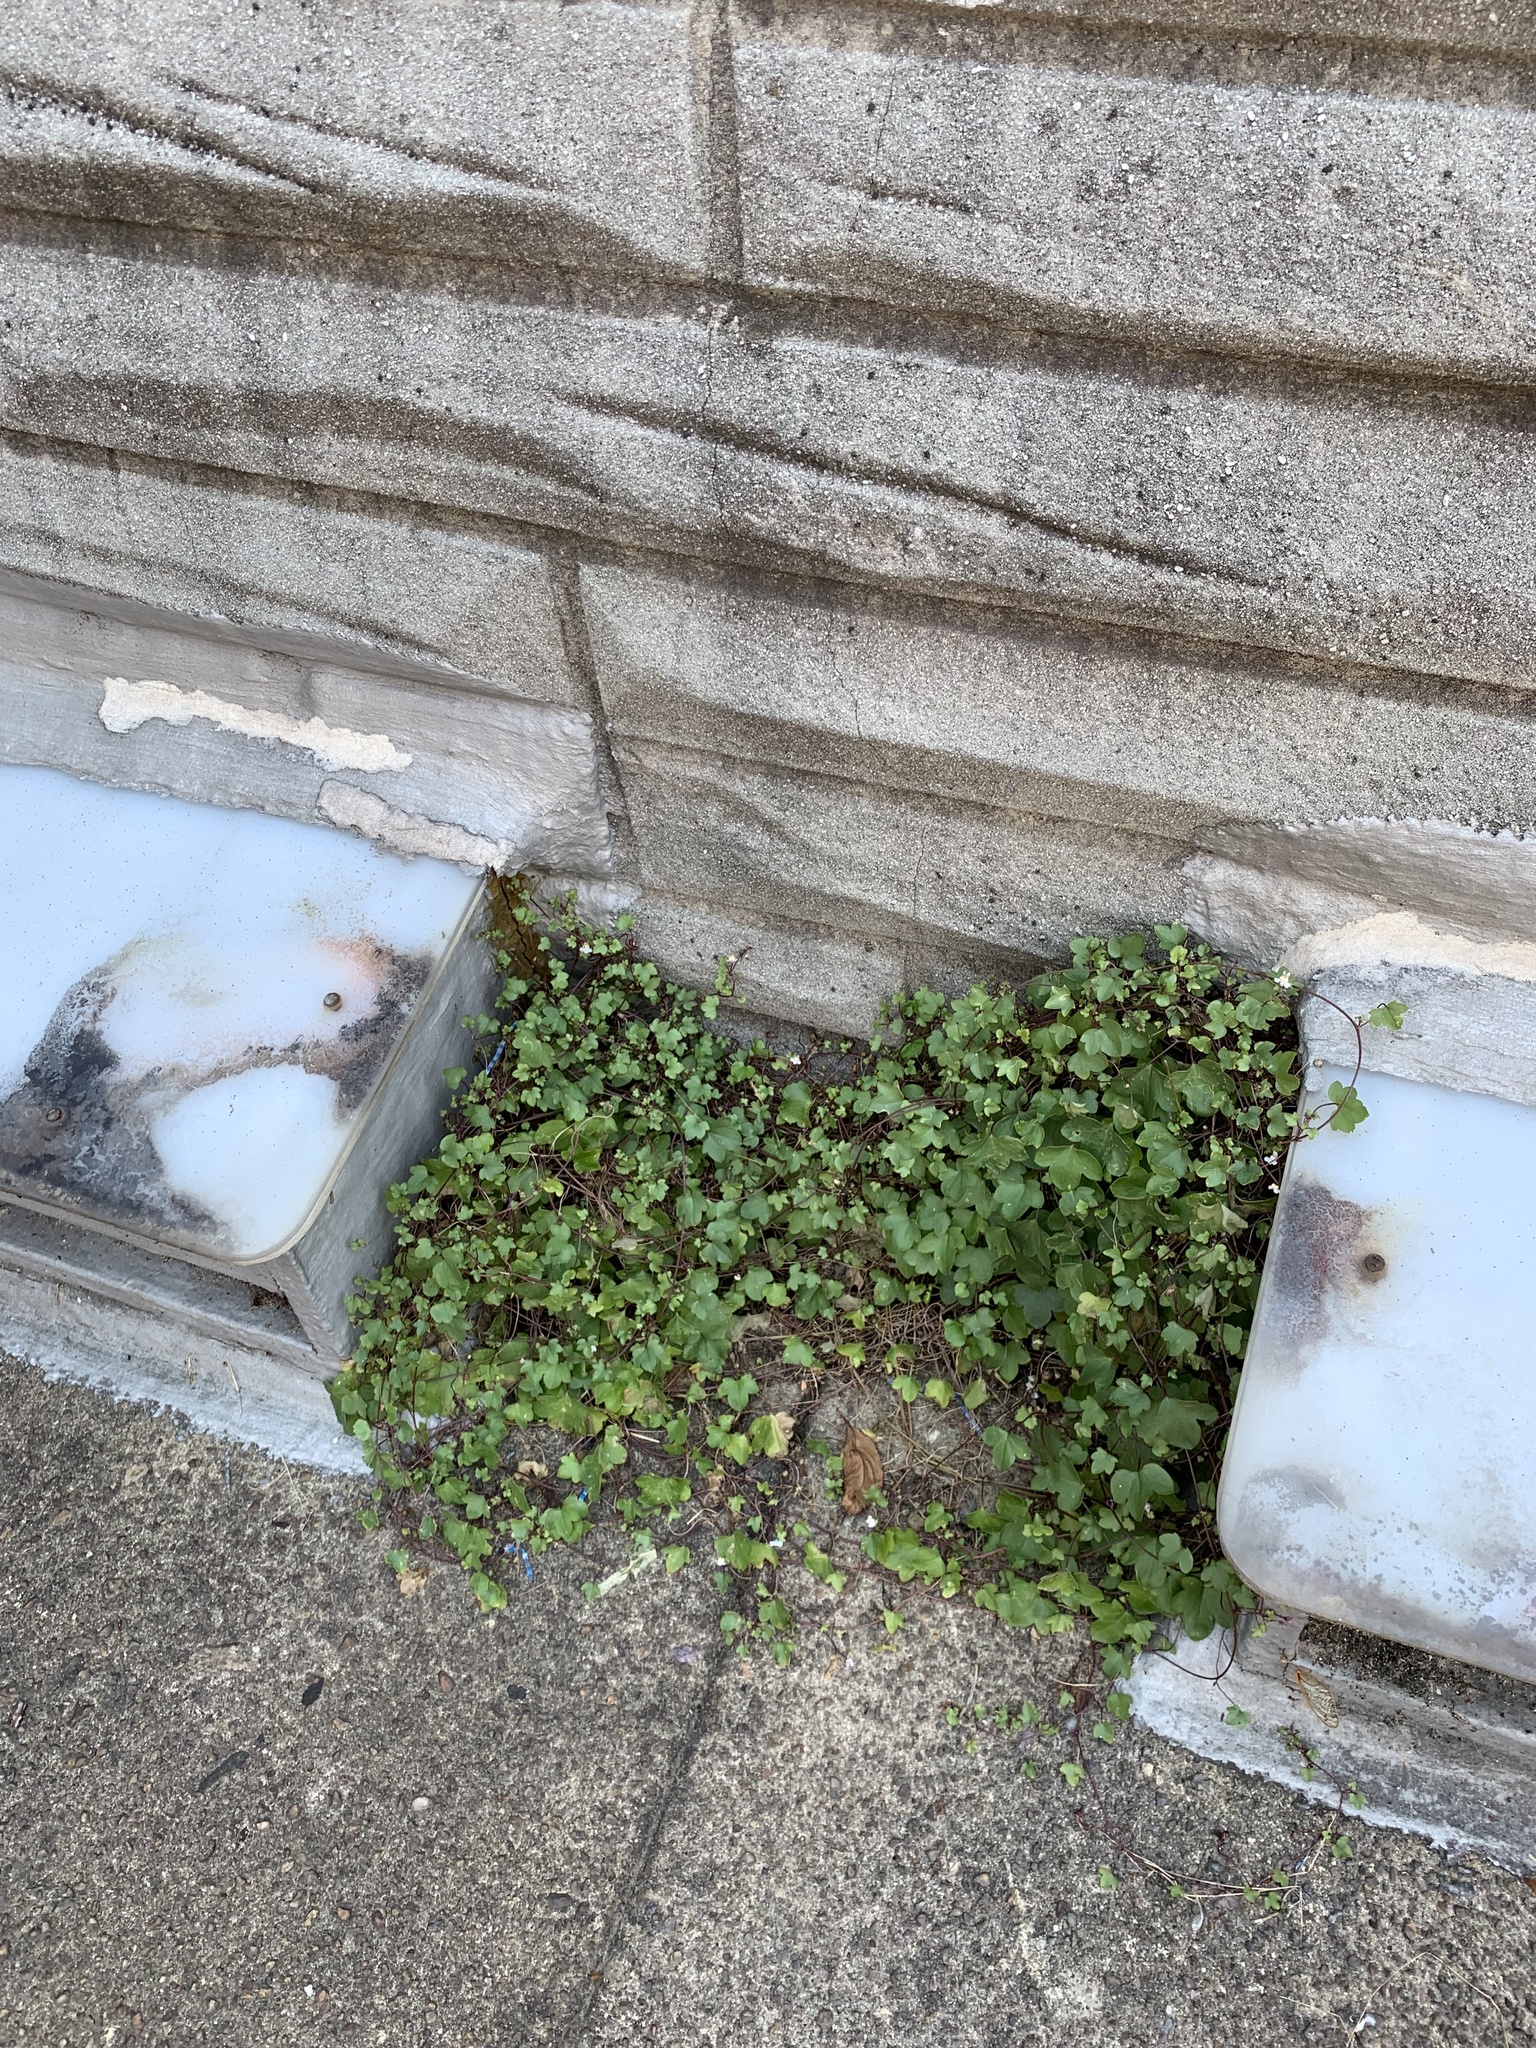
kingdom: Plantae
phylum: Tracheophyta
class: Magnoliopsida
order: Lamiales
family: Plantaginaceae
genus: Cymbalaria
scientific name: Cymbalaria muralis
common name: Ivy-leaved toadflax
